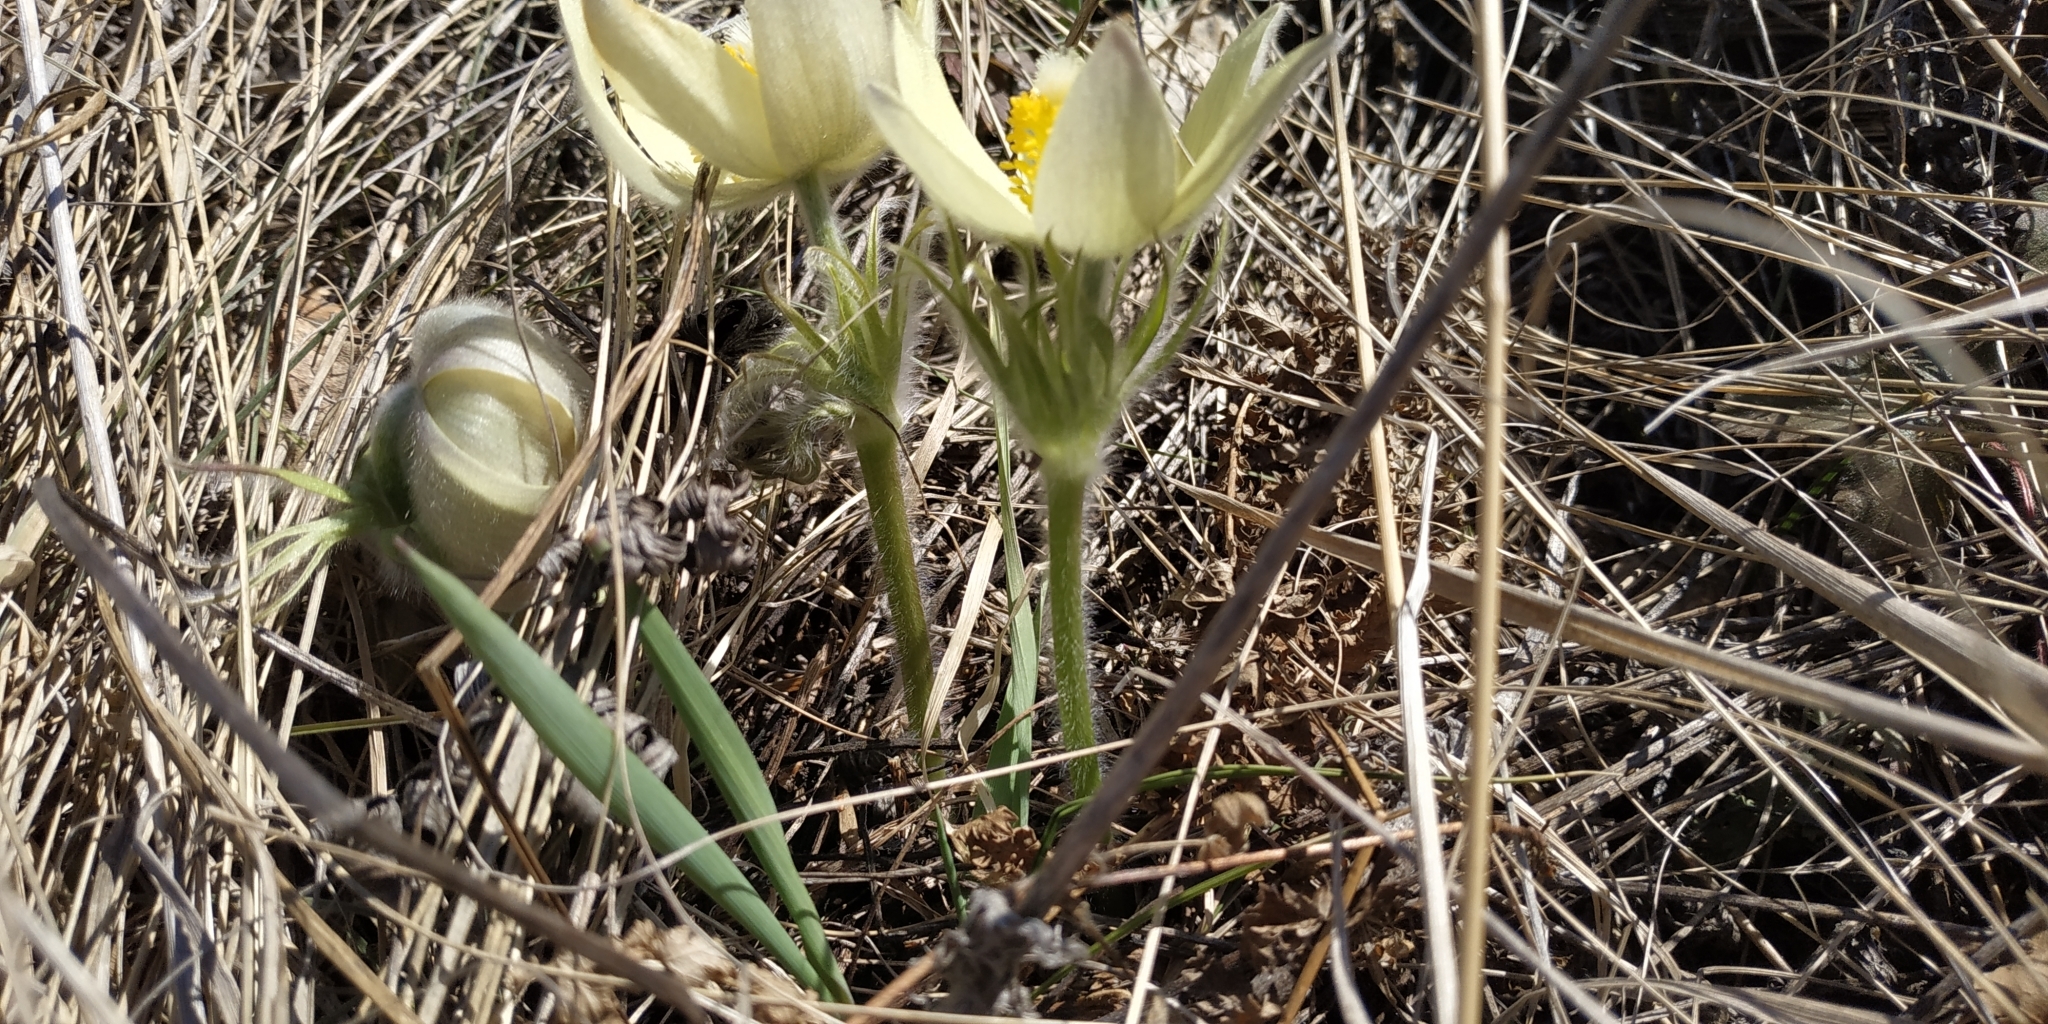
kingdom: Plantae
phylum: Tracheophyta
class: Magnoliopsida
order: Ranunculales
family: Ranunculaceae
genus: Pulsatilla
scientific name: Pulsatilla patens
